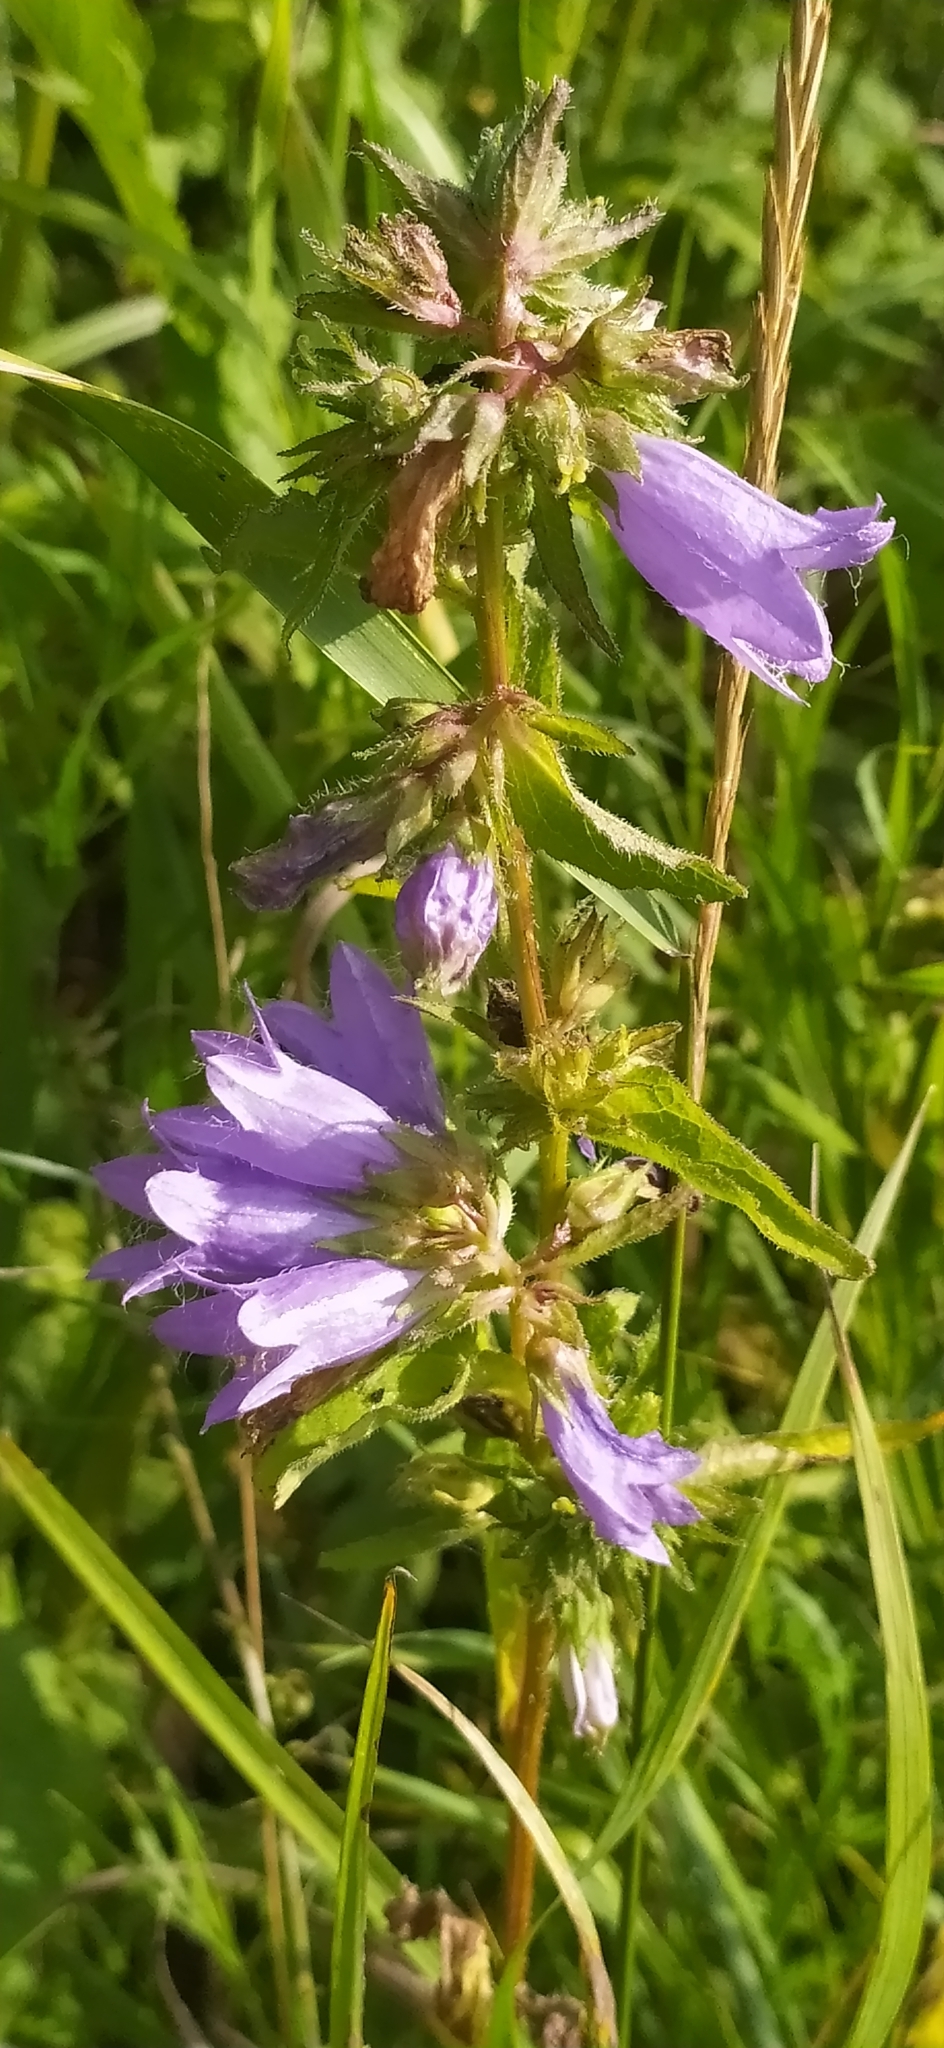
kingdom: Plantae
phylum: Tracheophyta
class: Magnoliopsida
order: Asterales
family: Campanulaceae
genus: Campanula
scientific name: Campanula trachelium
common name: Nettle-leaved bellflower
